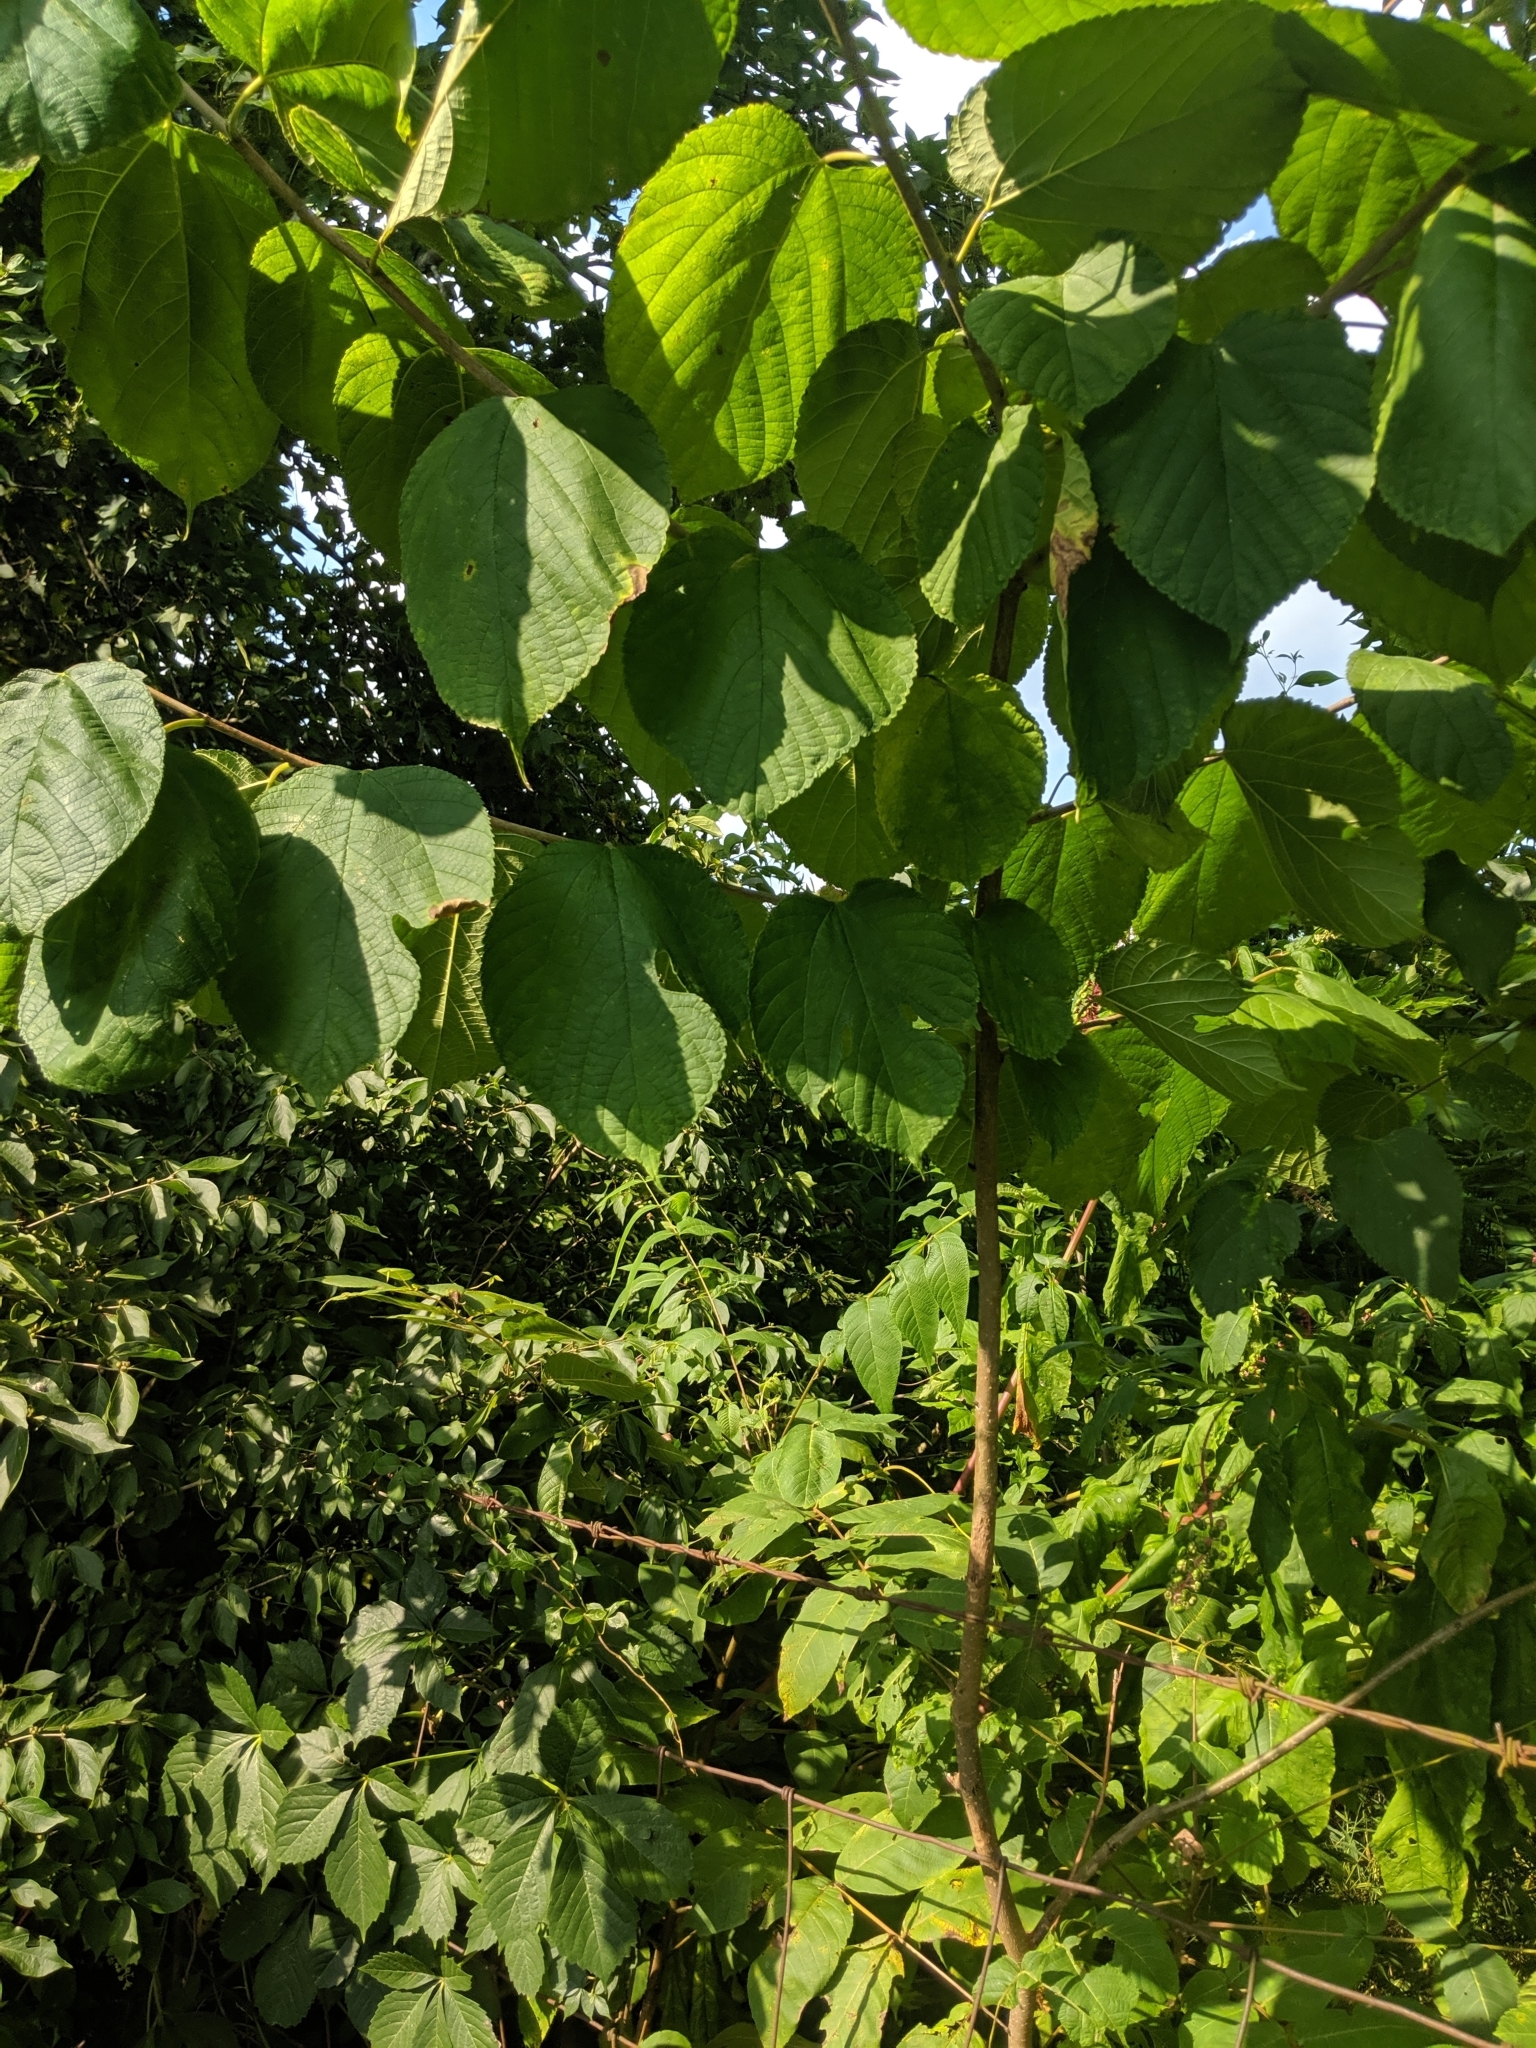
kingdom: Plantae
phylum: Tracheophyta
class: Magnoliopsida
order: Rosales
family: Moraceae
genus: Morus
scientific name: Morus rubra
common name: Red mulberry
